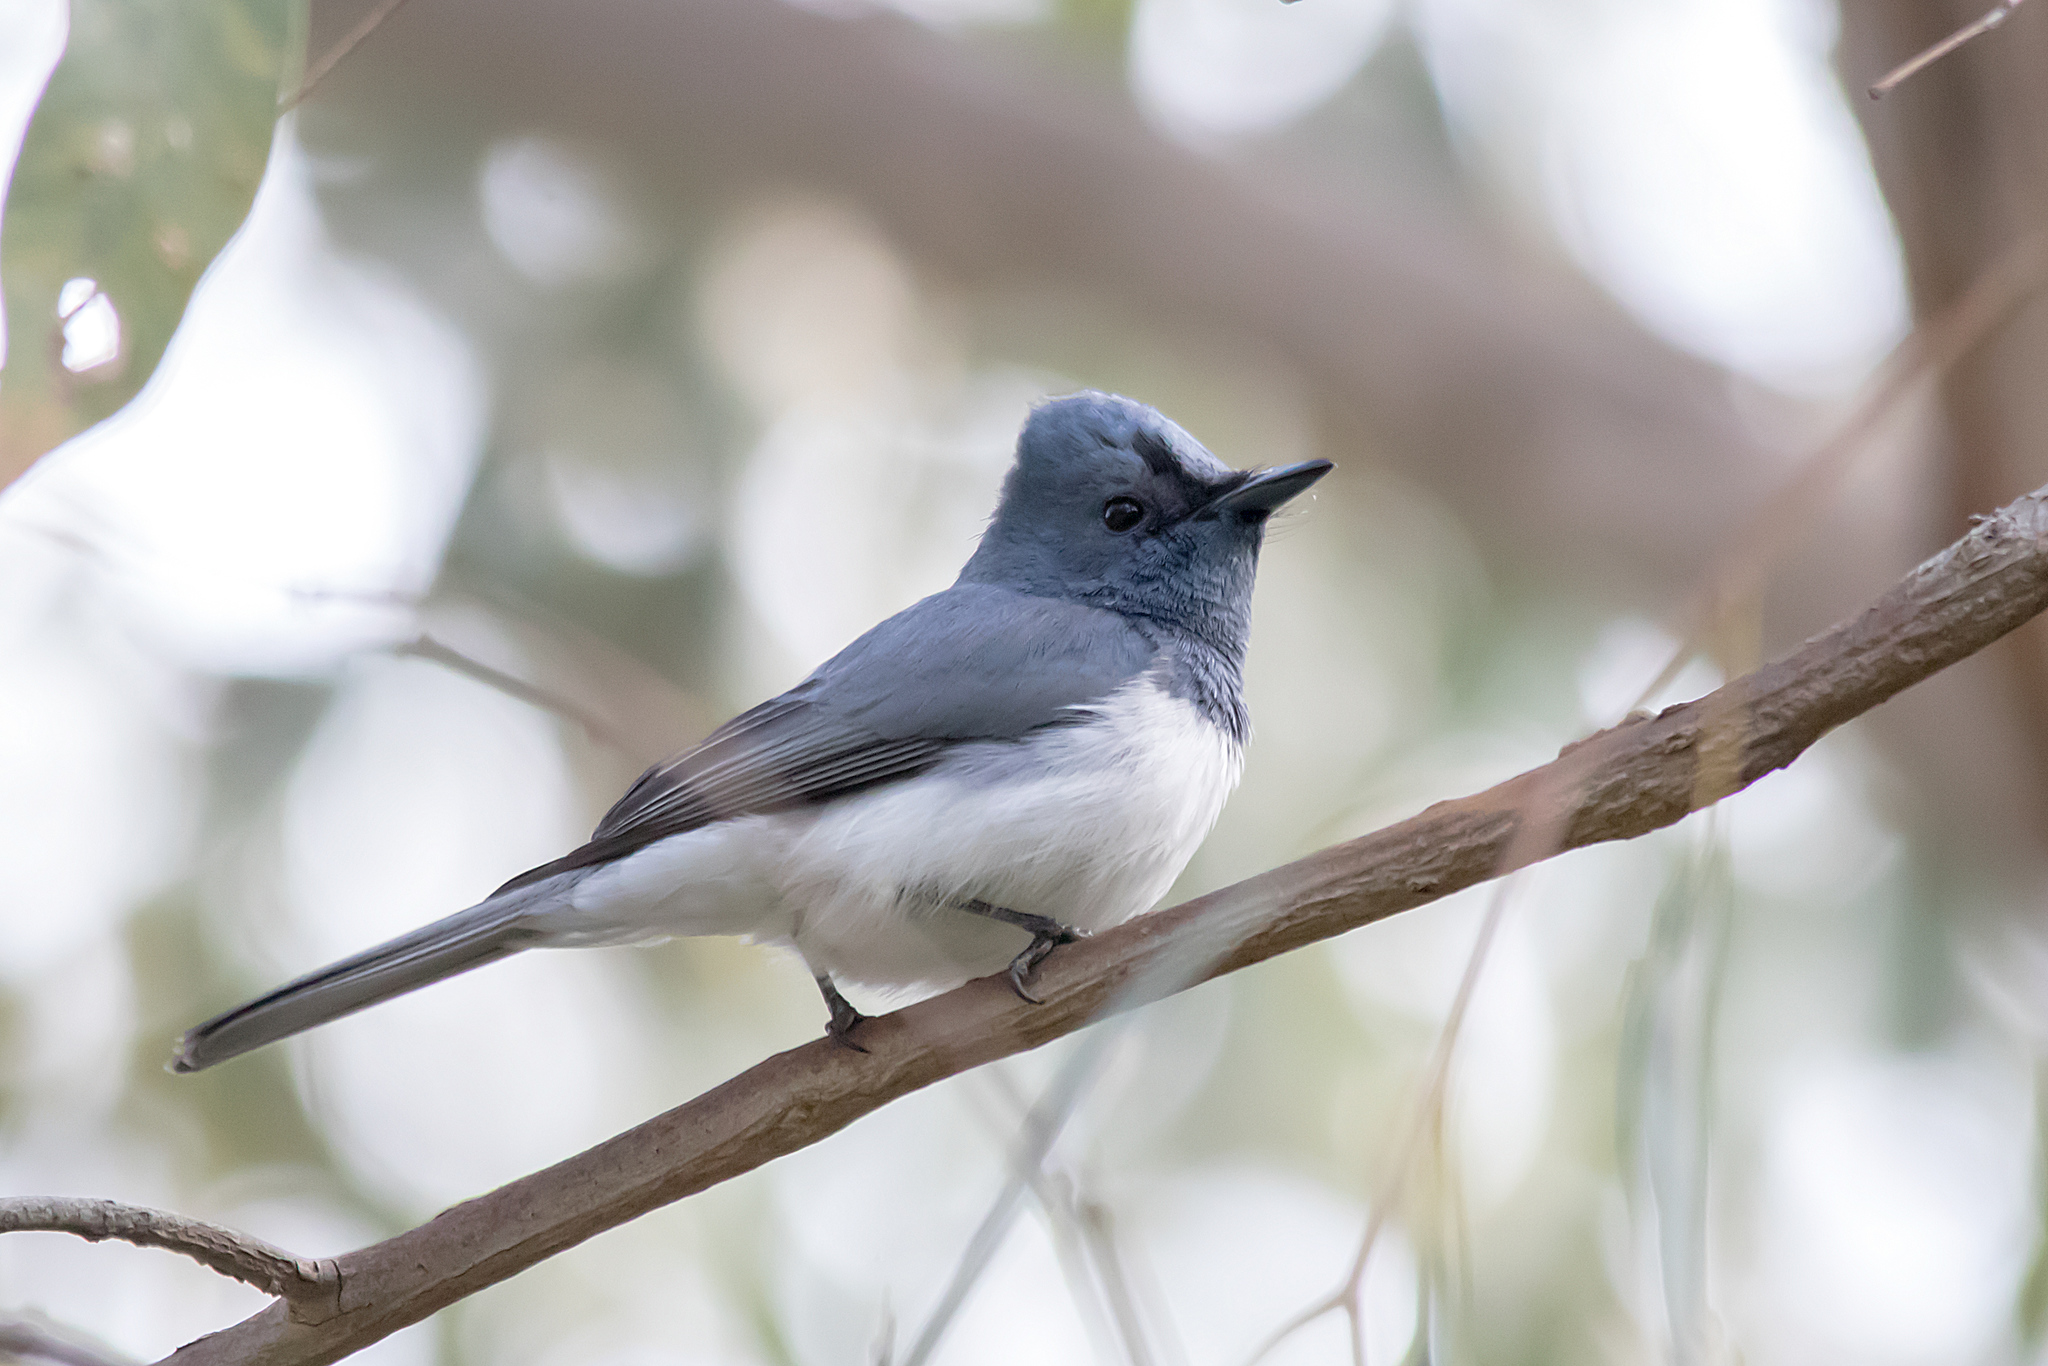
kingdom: Animalia
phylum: Chordata
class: Aves
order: Passeriformes
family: Monarchidae
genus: Myiagra
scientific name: Myiagra rubecula
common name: Leaden flycatcher
